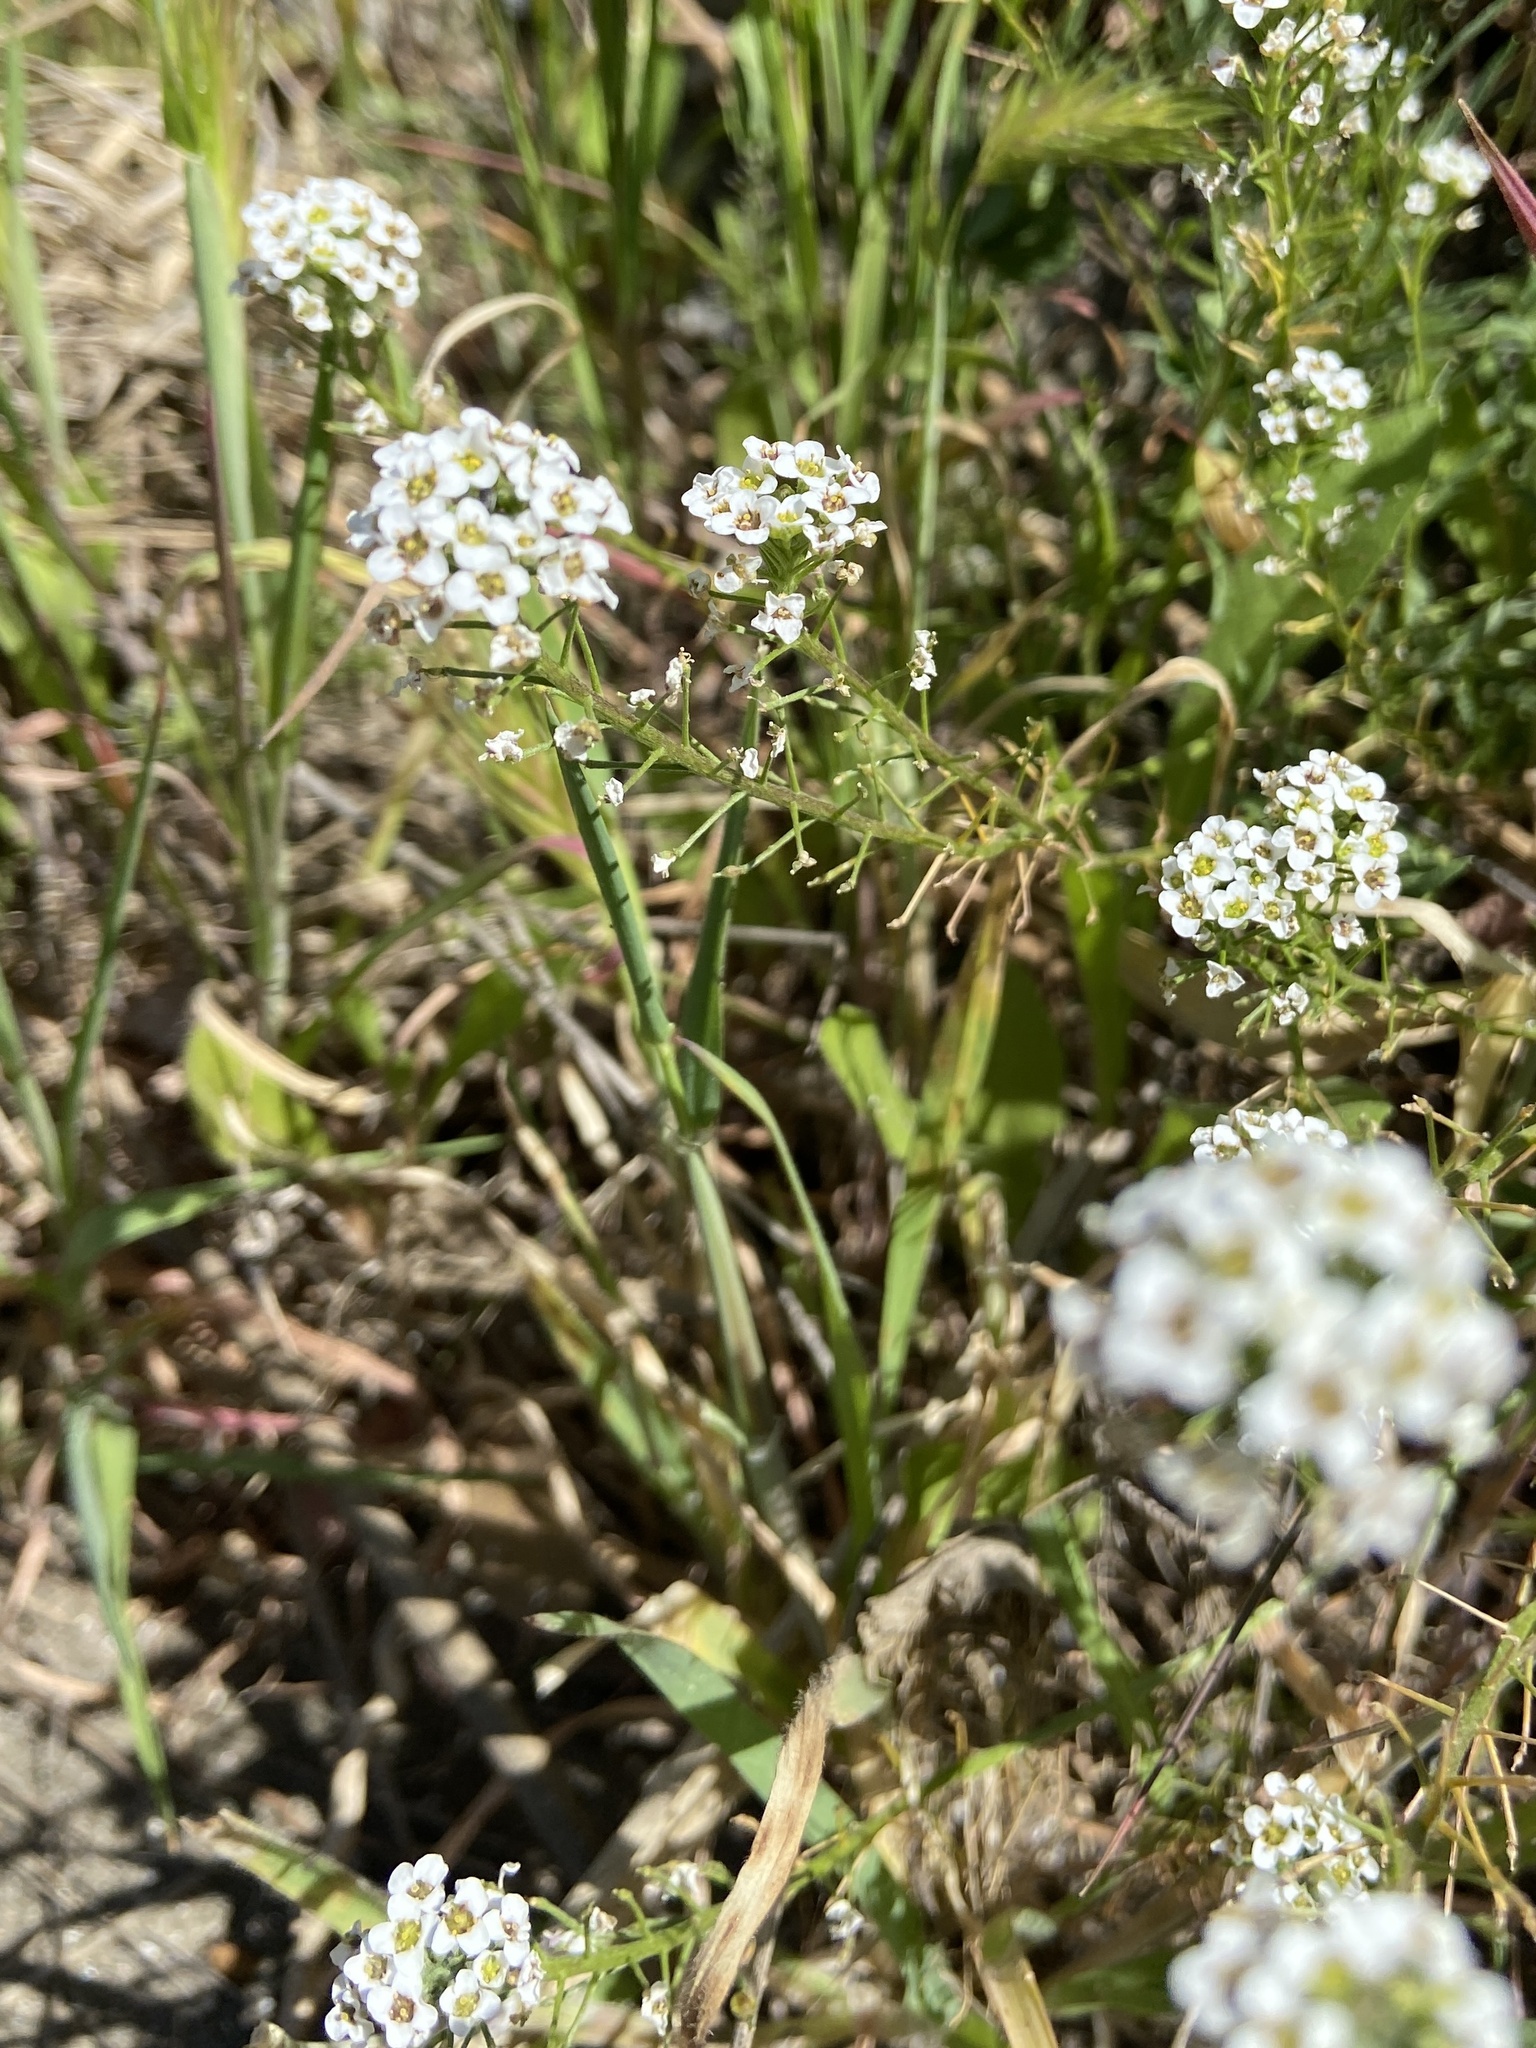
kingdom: Plantae
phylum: Tracheophyta
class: Magnoliopsida
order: Brassicales
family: Brassicaceae
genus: Lobularia
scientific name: Lobularia maritima
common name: Sweet alison
